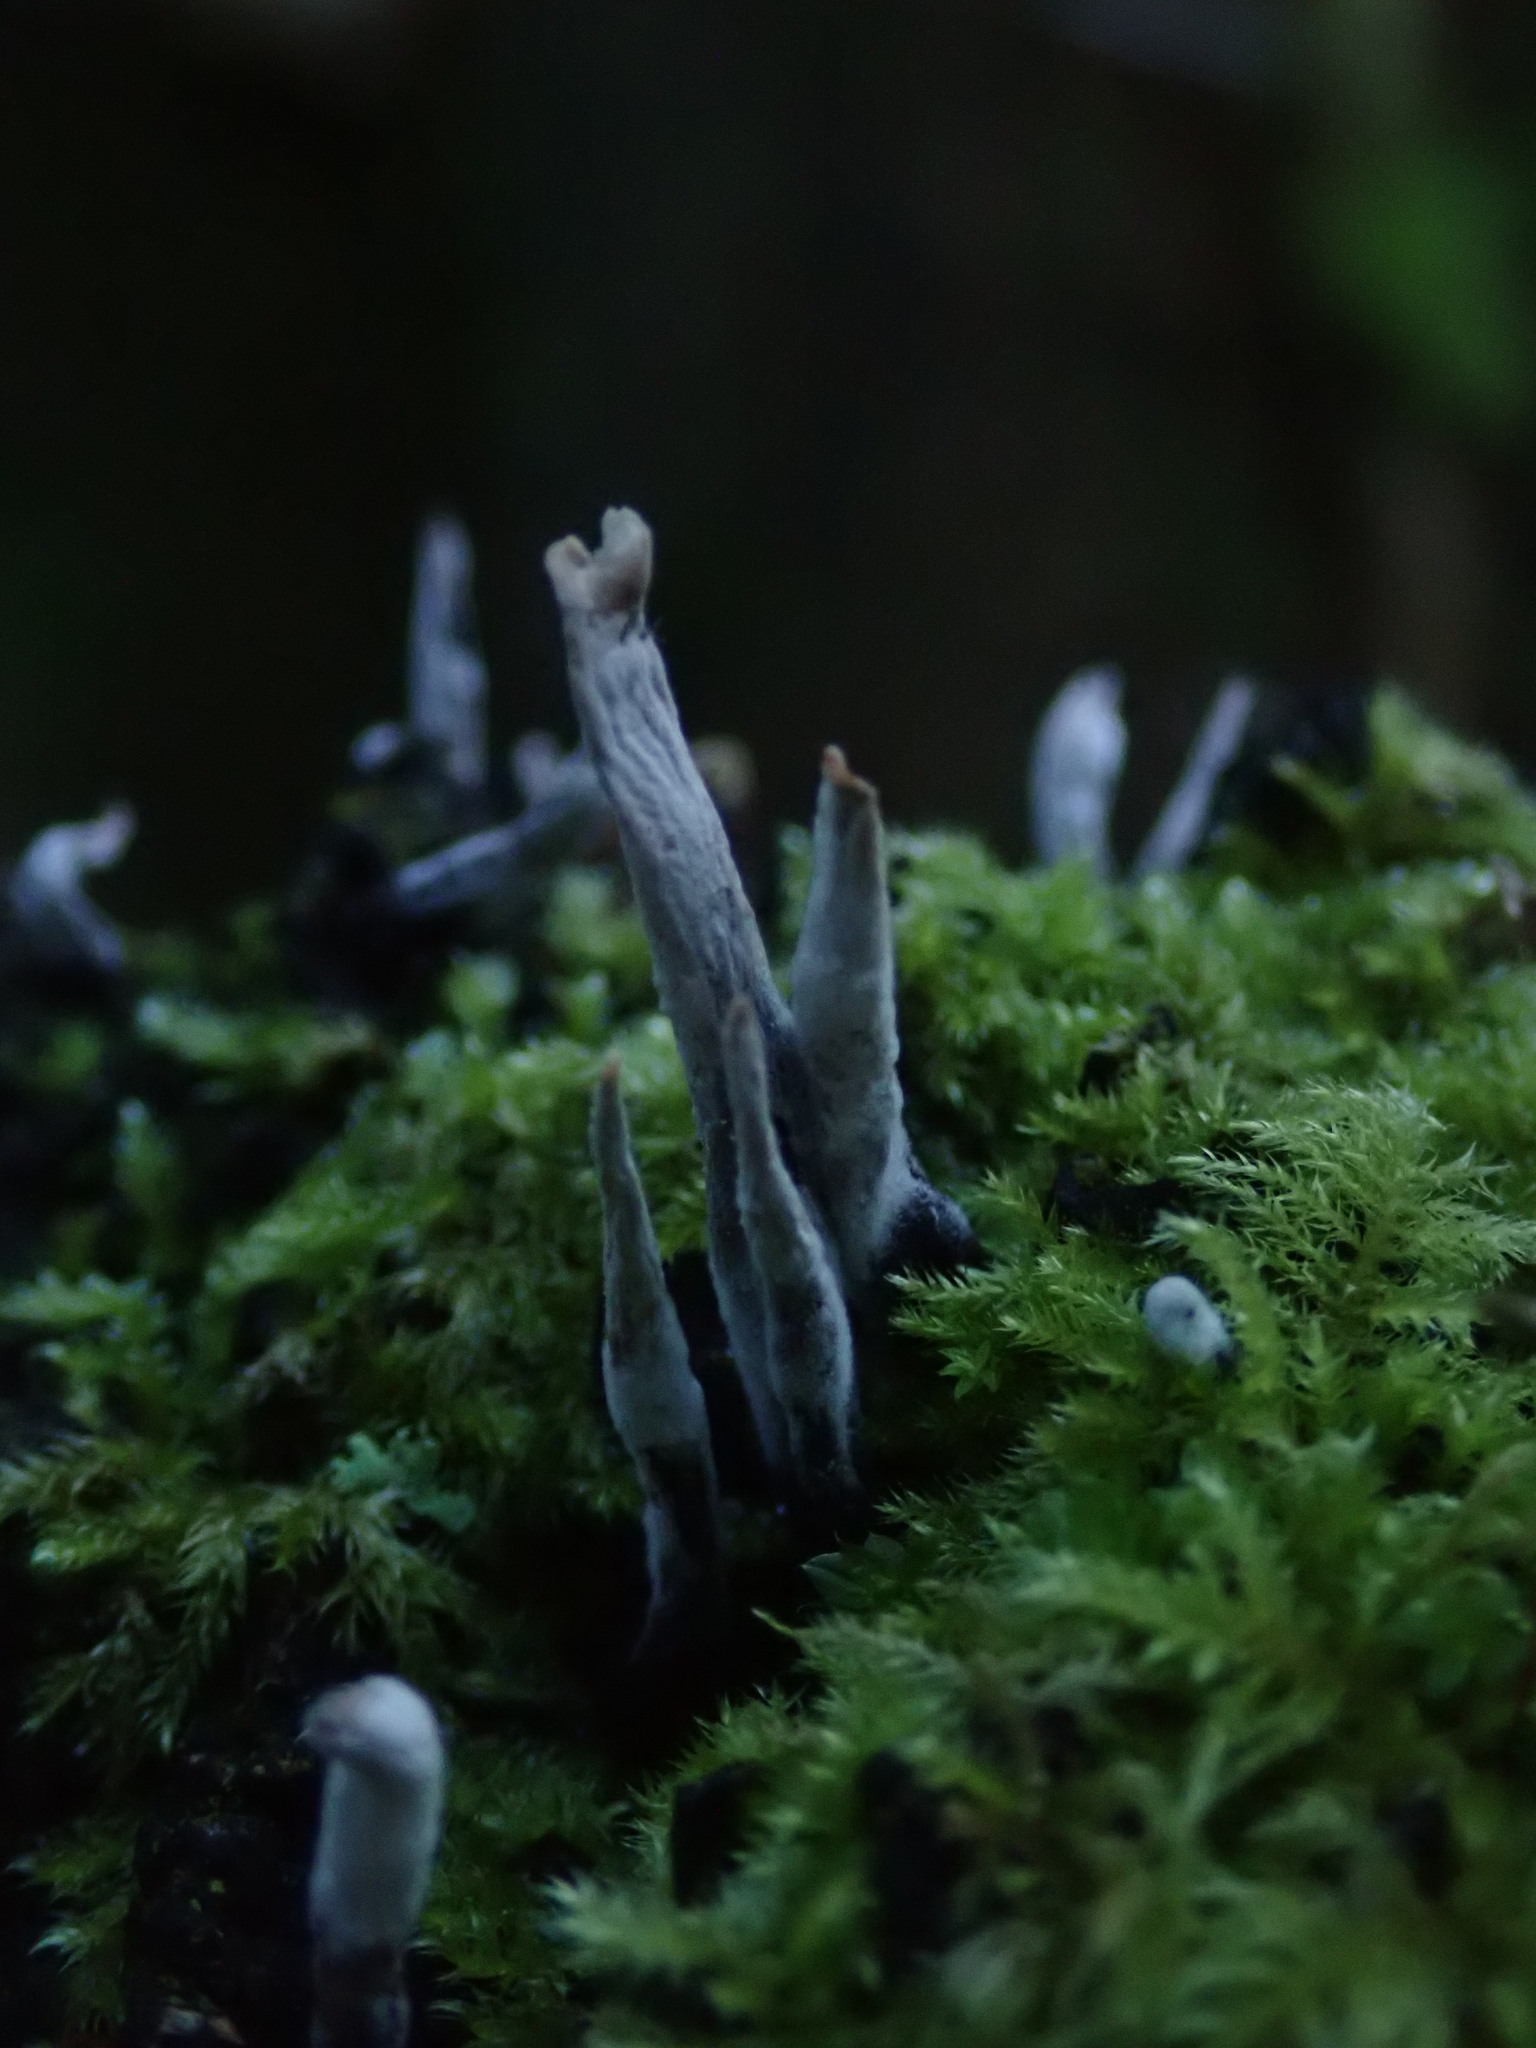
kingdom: Fungi
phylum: Ascomycota
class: Sordariomycetes
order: Xylariales
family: Xylariaceae
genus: Xylaria
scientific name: Xylaria hypoxylon
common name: Candle-snuff fungus
